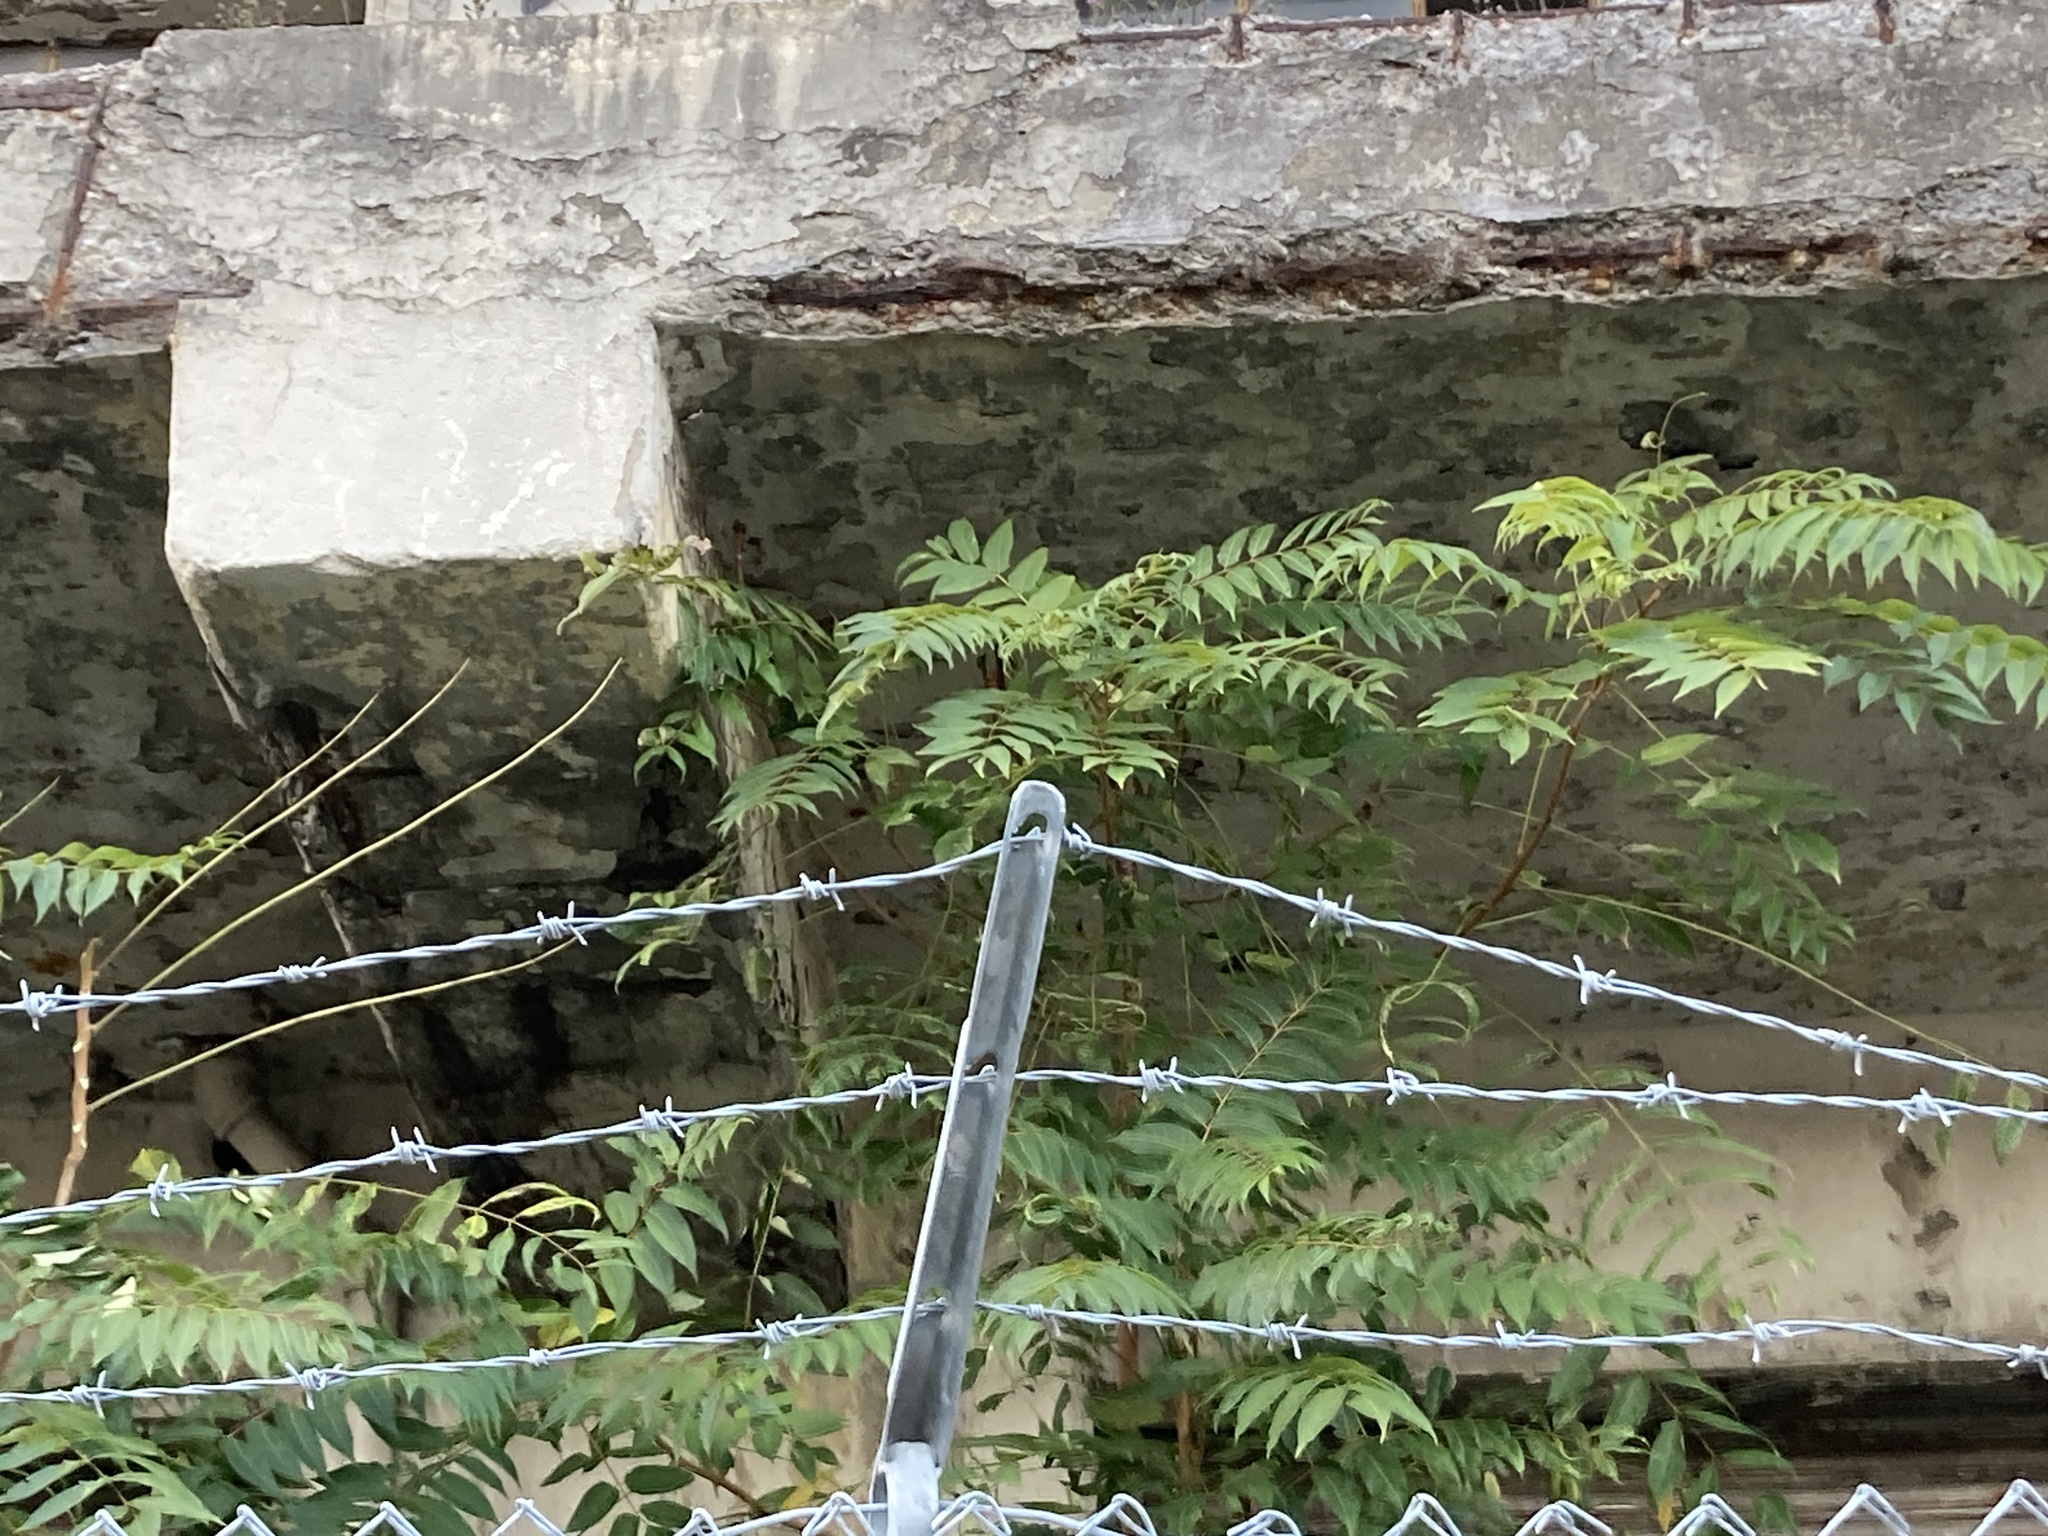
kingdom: Plantae
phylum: Tracheophyta
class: Magnoliopsida
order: Sapindales
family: Simaroubaceae
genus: Ailanthus
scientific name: Ailanthus altissima
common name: Tree-of-heaven
